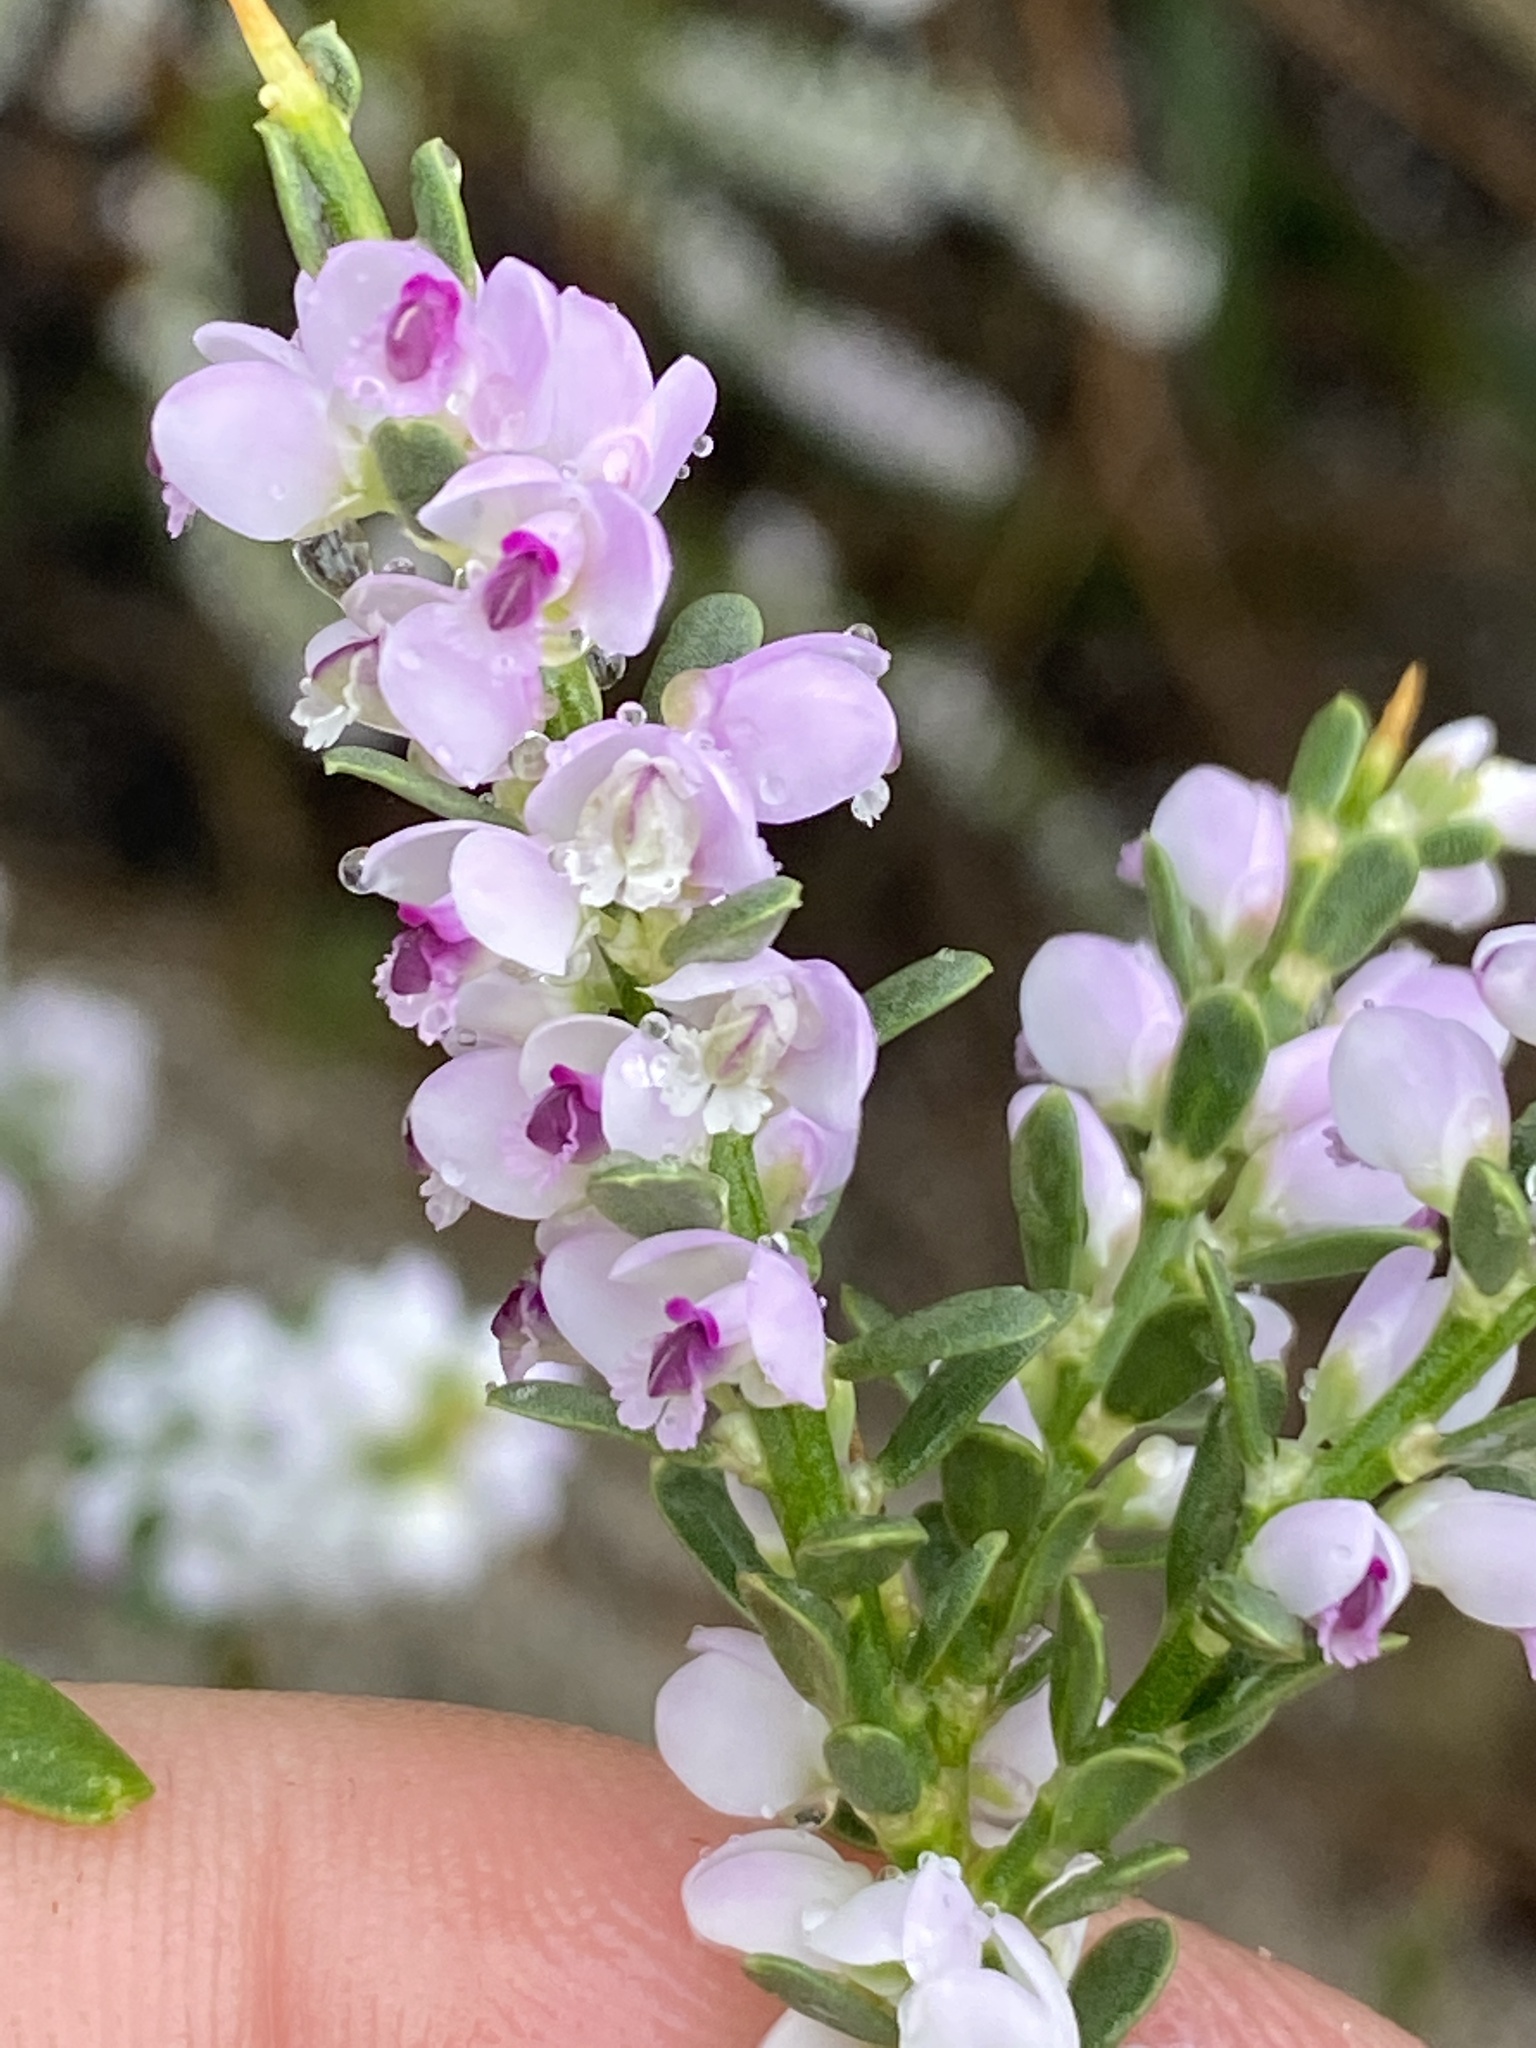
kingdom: Plantae
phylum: Tracheophyta
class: Magnoliopsida
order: Fabales
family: Polygalaceae
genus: Muraltia
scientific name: Muraltia spinosa
